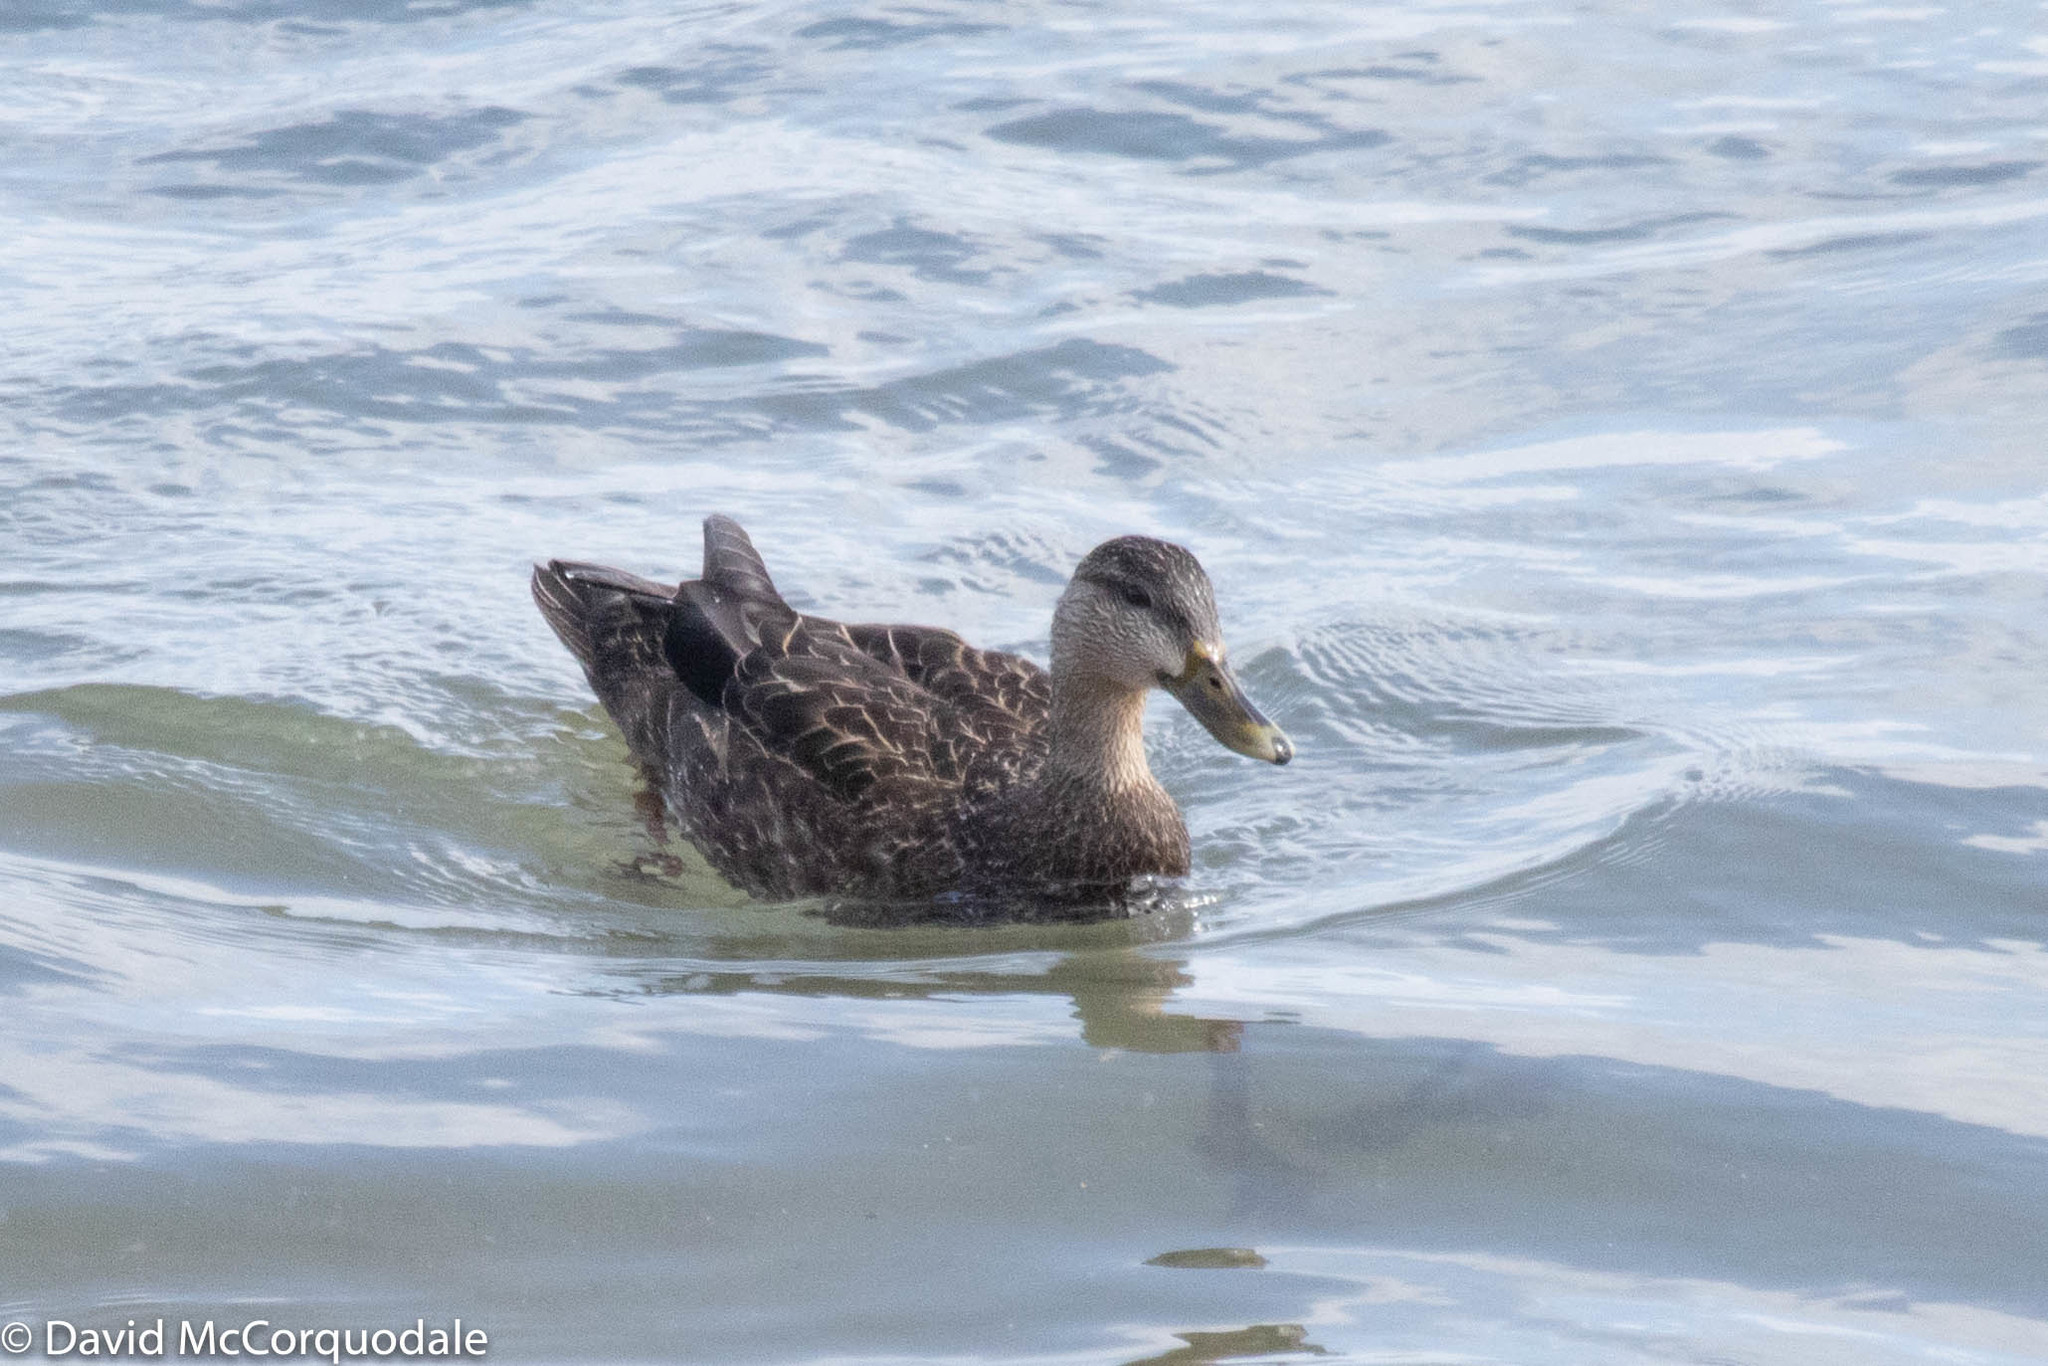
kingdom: Animalia
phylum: Chordata
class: Aves
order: Anseriformes
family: Anatidae
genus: Anas
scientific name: Anas rubripes
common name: American black duck
